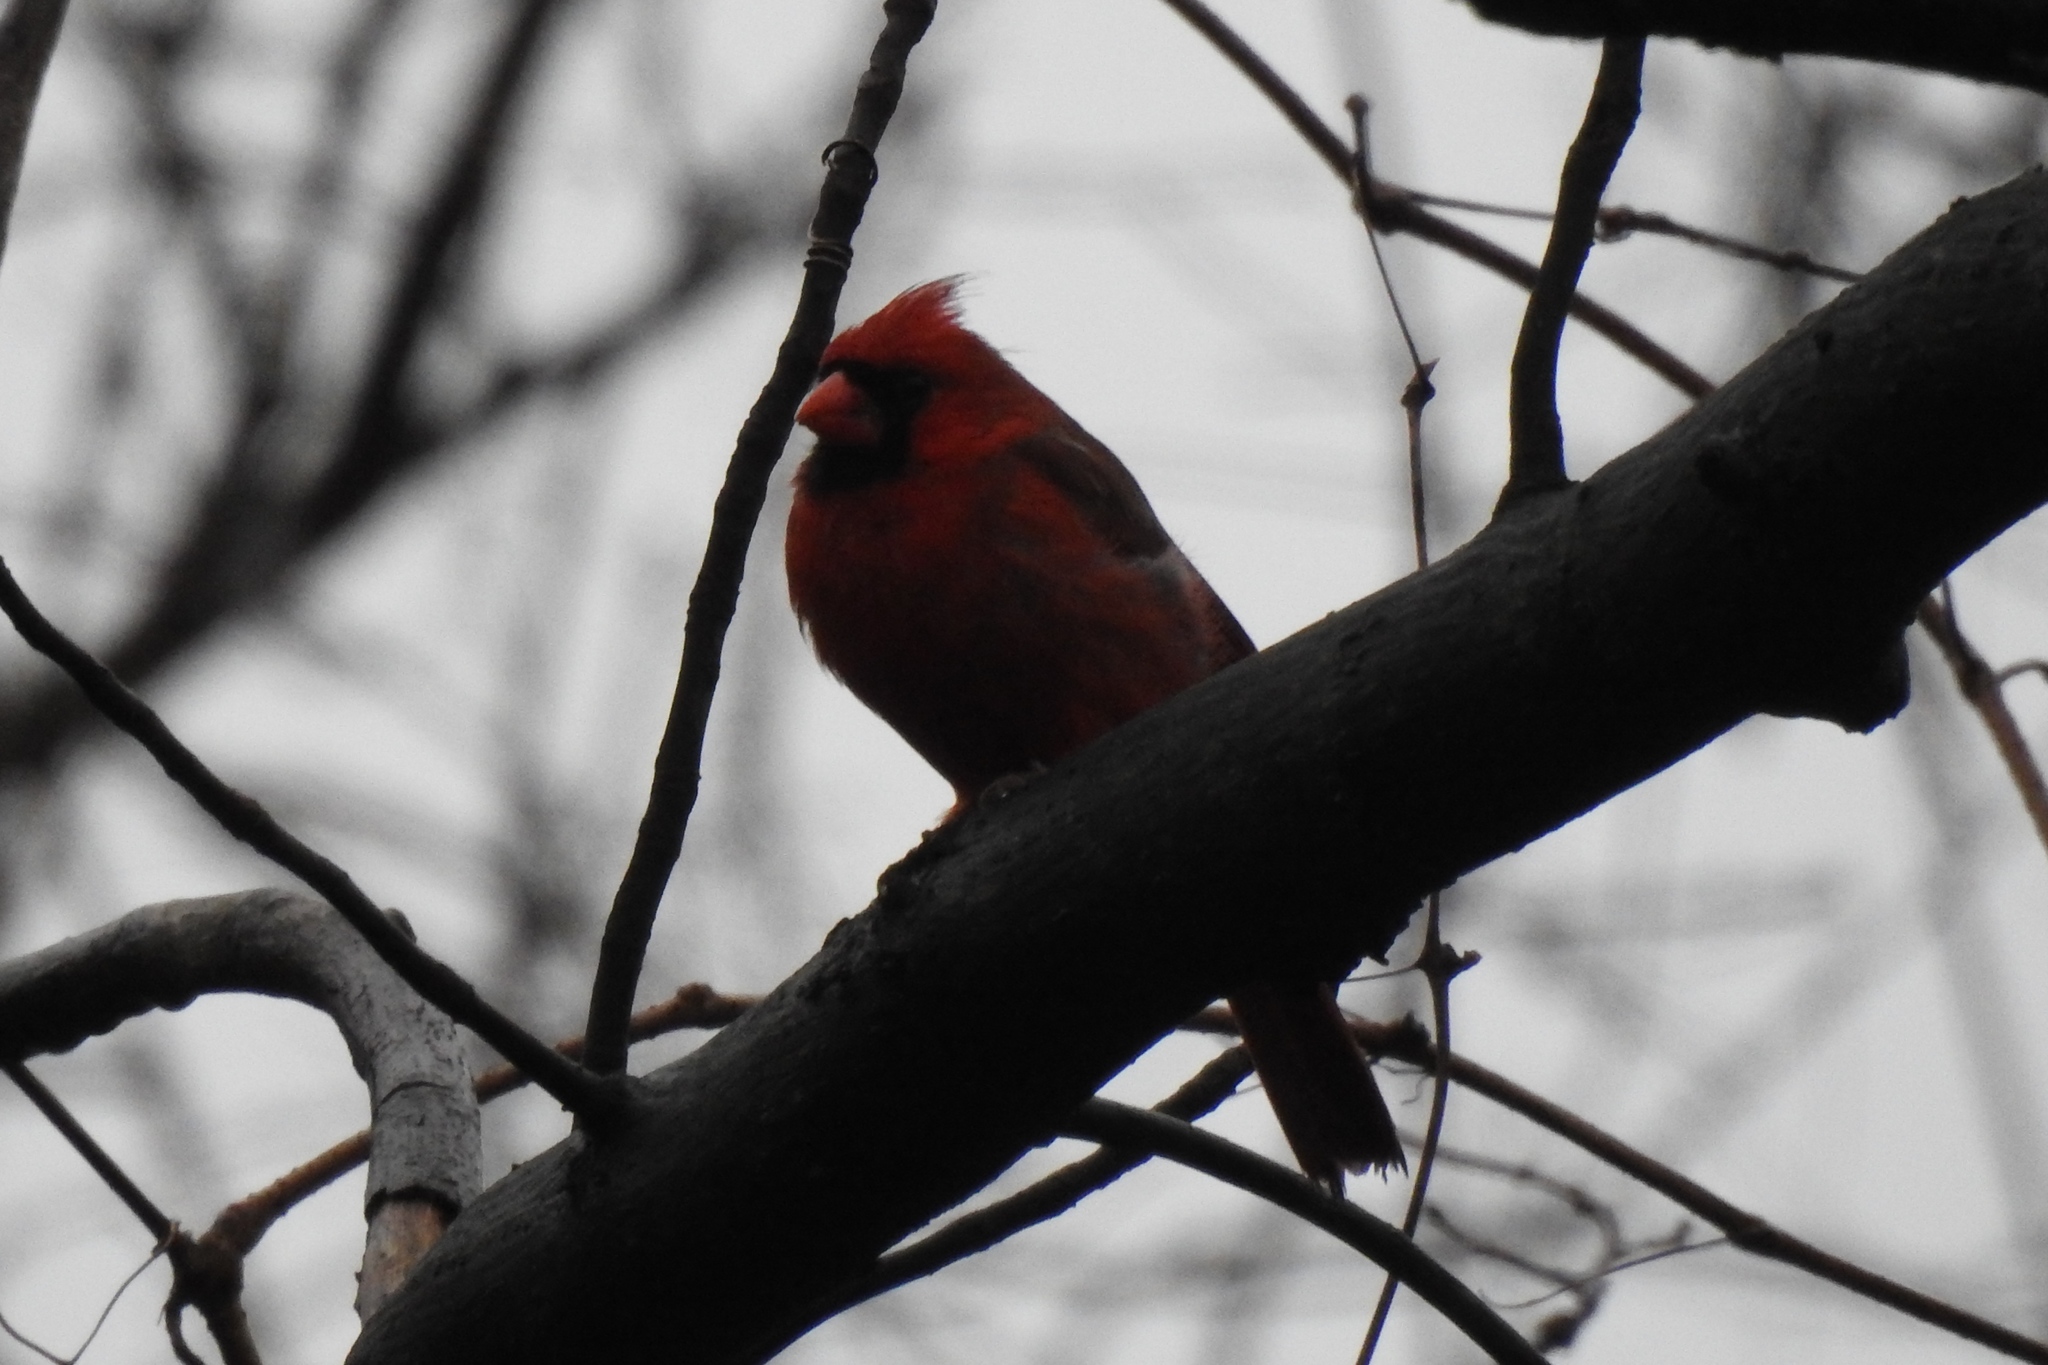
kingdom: Animalia
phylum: Chordata
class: Aves
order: Passeriformes
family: Cardinalidae
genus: Cardinalis
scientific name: Cardinalis cardinalis
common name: Northern cardinal
